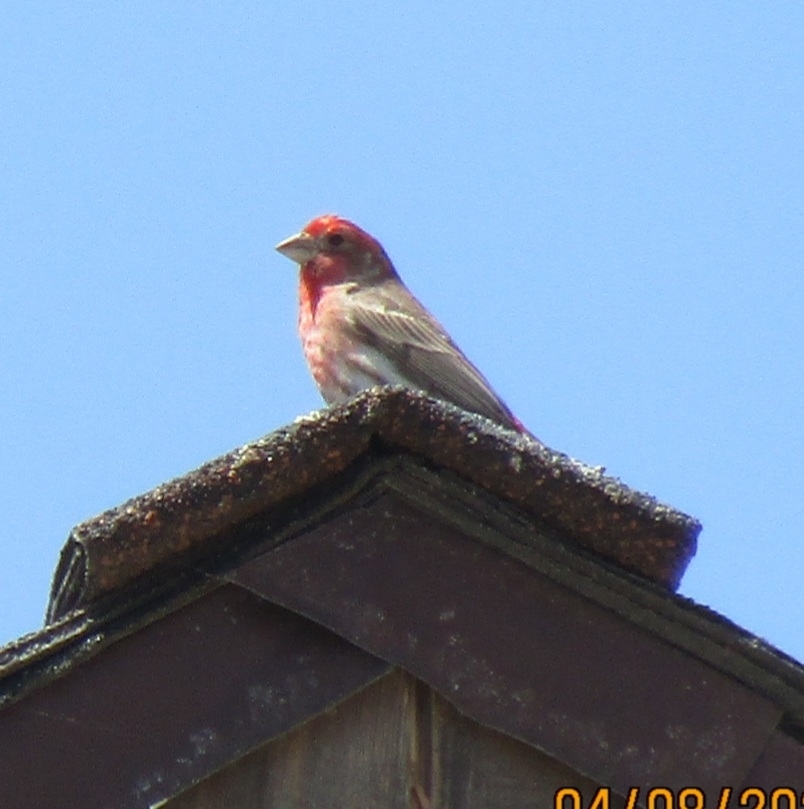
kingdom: Animalia
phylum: Chordata
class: Aves
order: Passeriformes
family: Fringillidae
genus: Haemorhous
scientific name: Haemorhous mexicanus
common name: House finch
